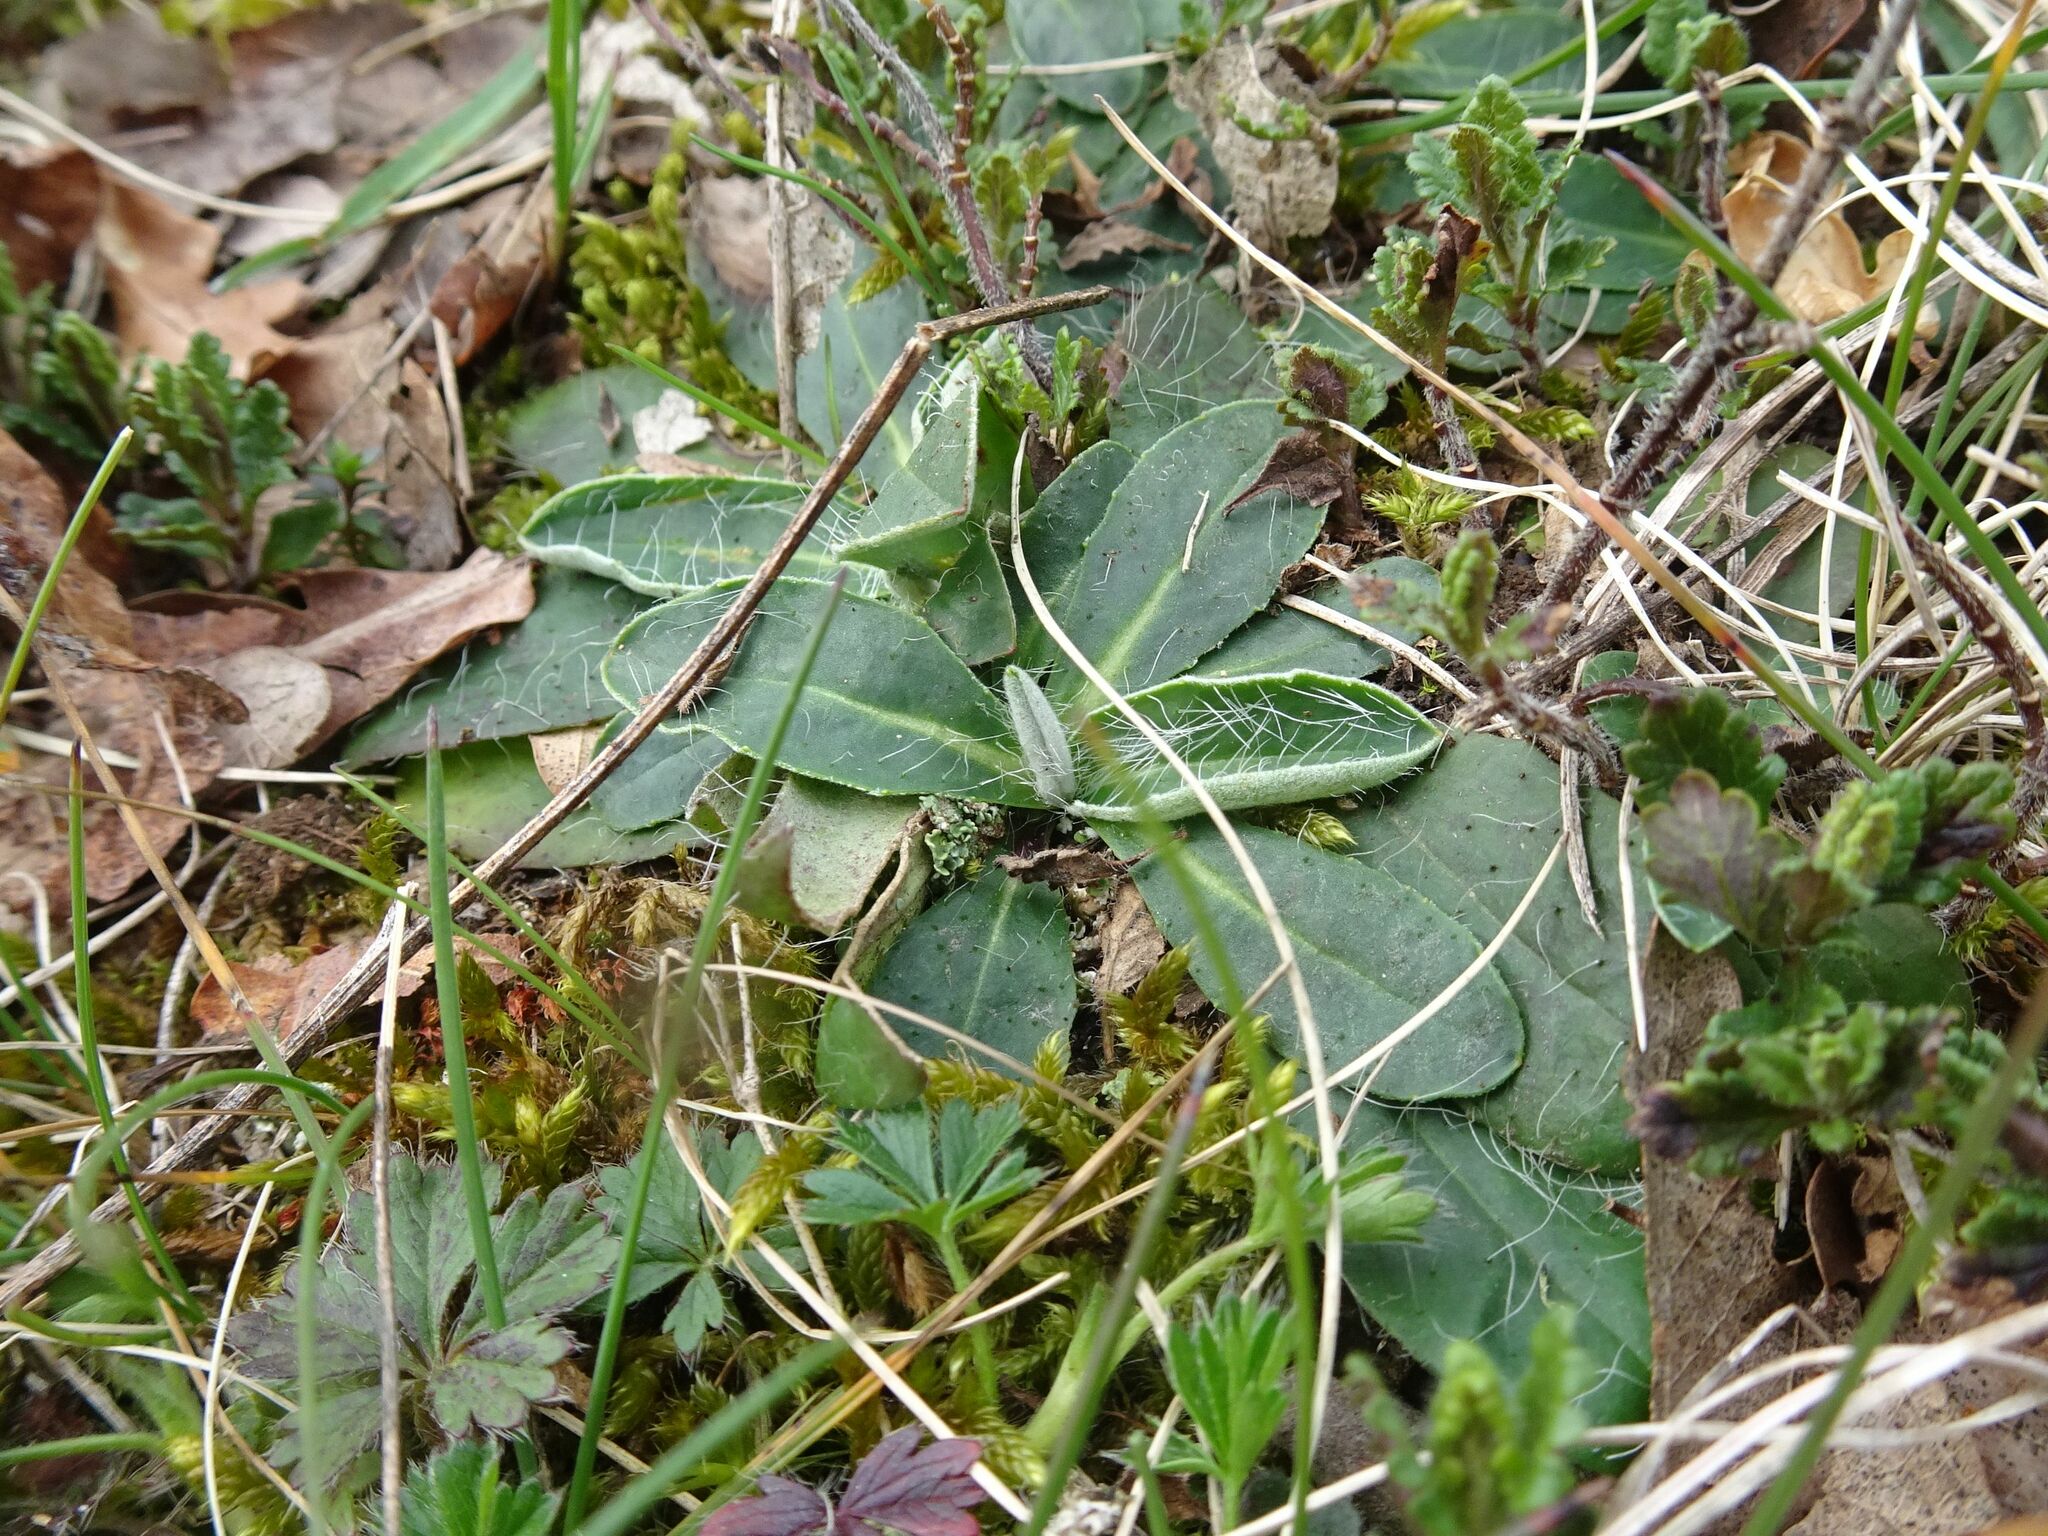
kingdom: Plantae
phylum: Tracheophyta
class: Magnoliopsida
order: Asterales
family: Asteraceae
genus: Pilosella
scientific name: Pilosella officinarum
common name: Mouse-ear hawkweed
